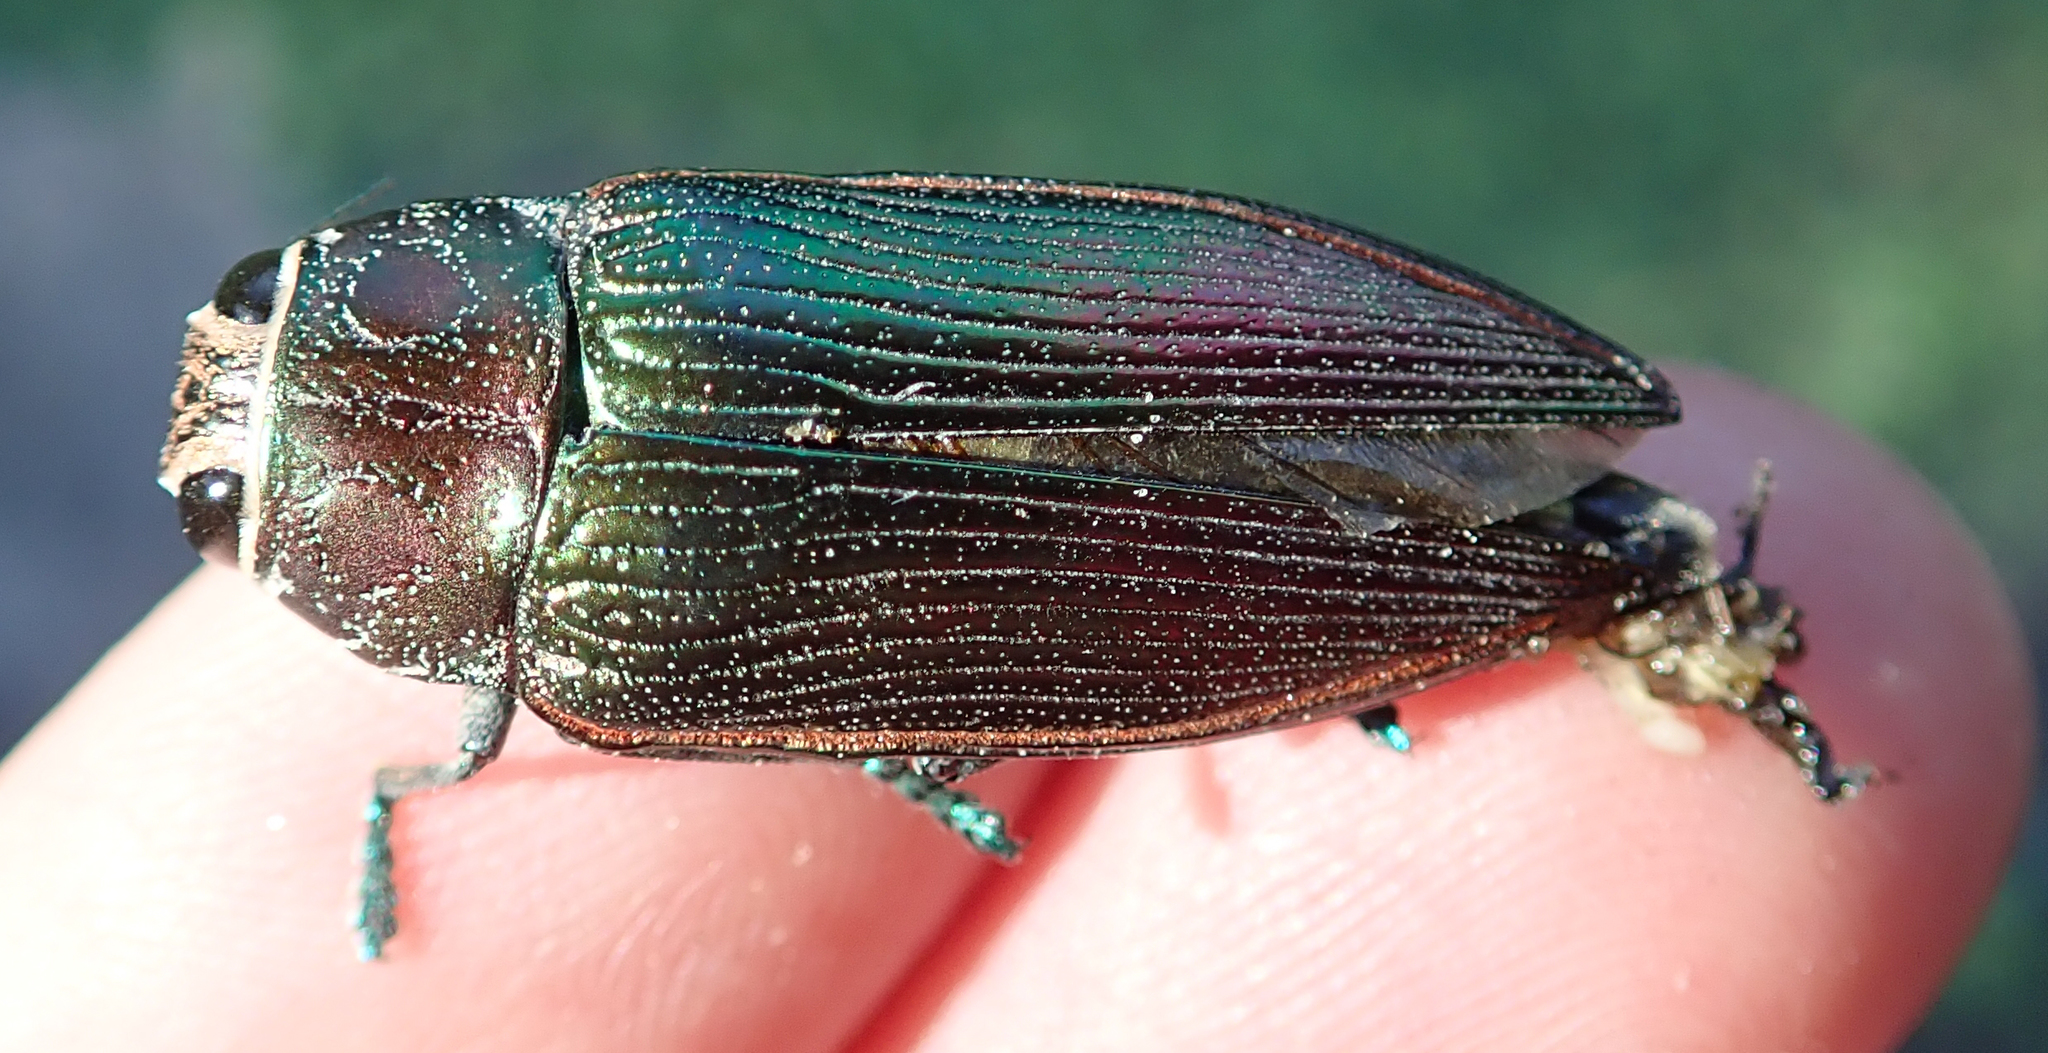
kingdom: Animalia
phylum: Arthropoda
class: Insecta
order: Coleoptera
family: Buprestidae
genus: Lampetis
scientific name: Lampetis foveicollis
